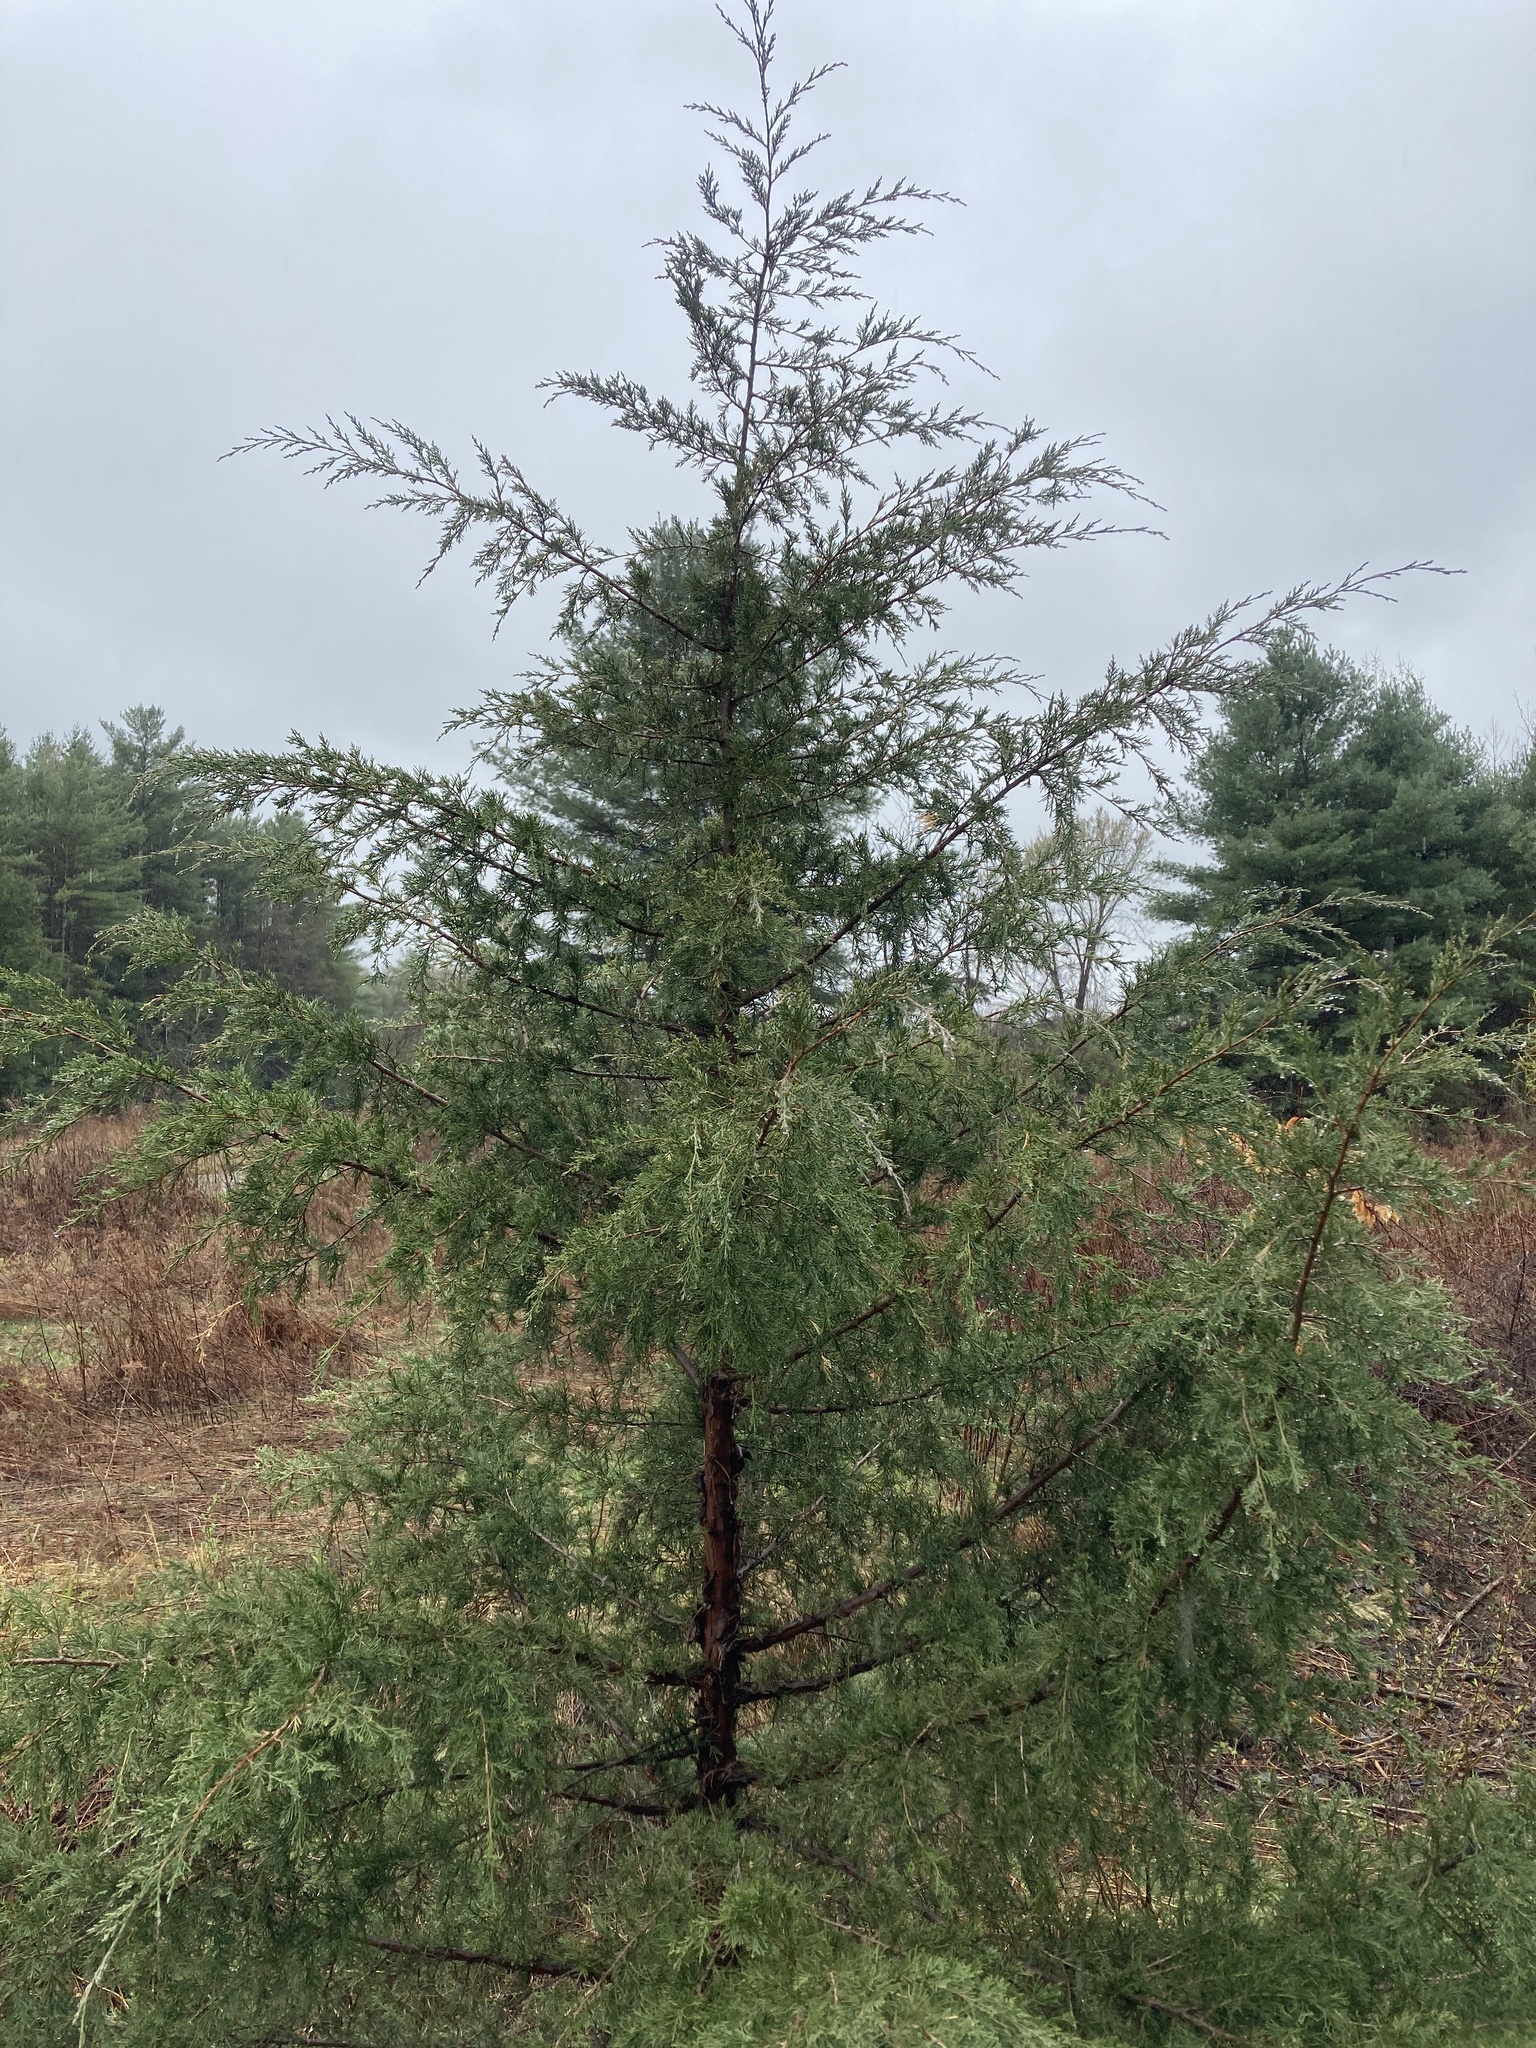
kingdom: Plantae
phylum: Tracheophyta
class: Pinopsida
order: Pinales
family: Cupressaceae
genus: Juniperus
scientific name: Juniperus virginiana
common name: Red juniper
